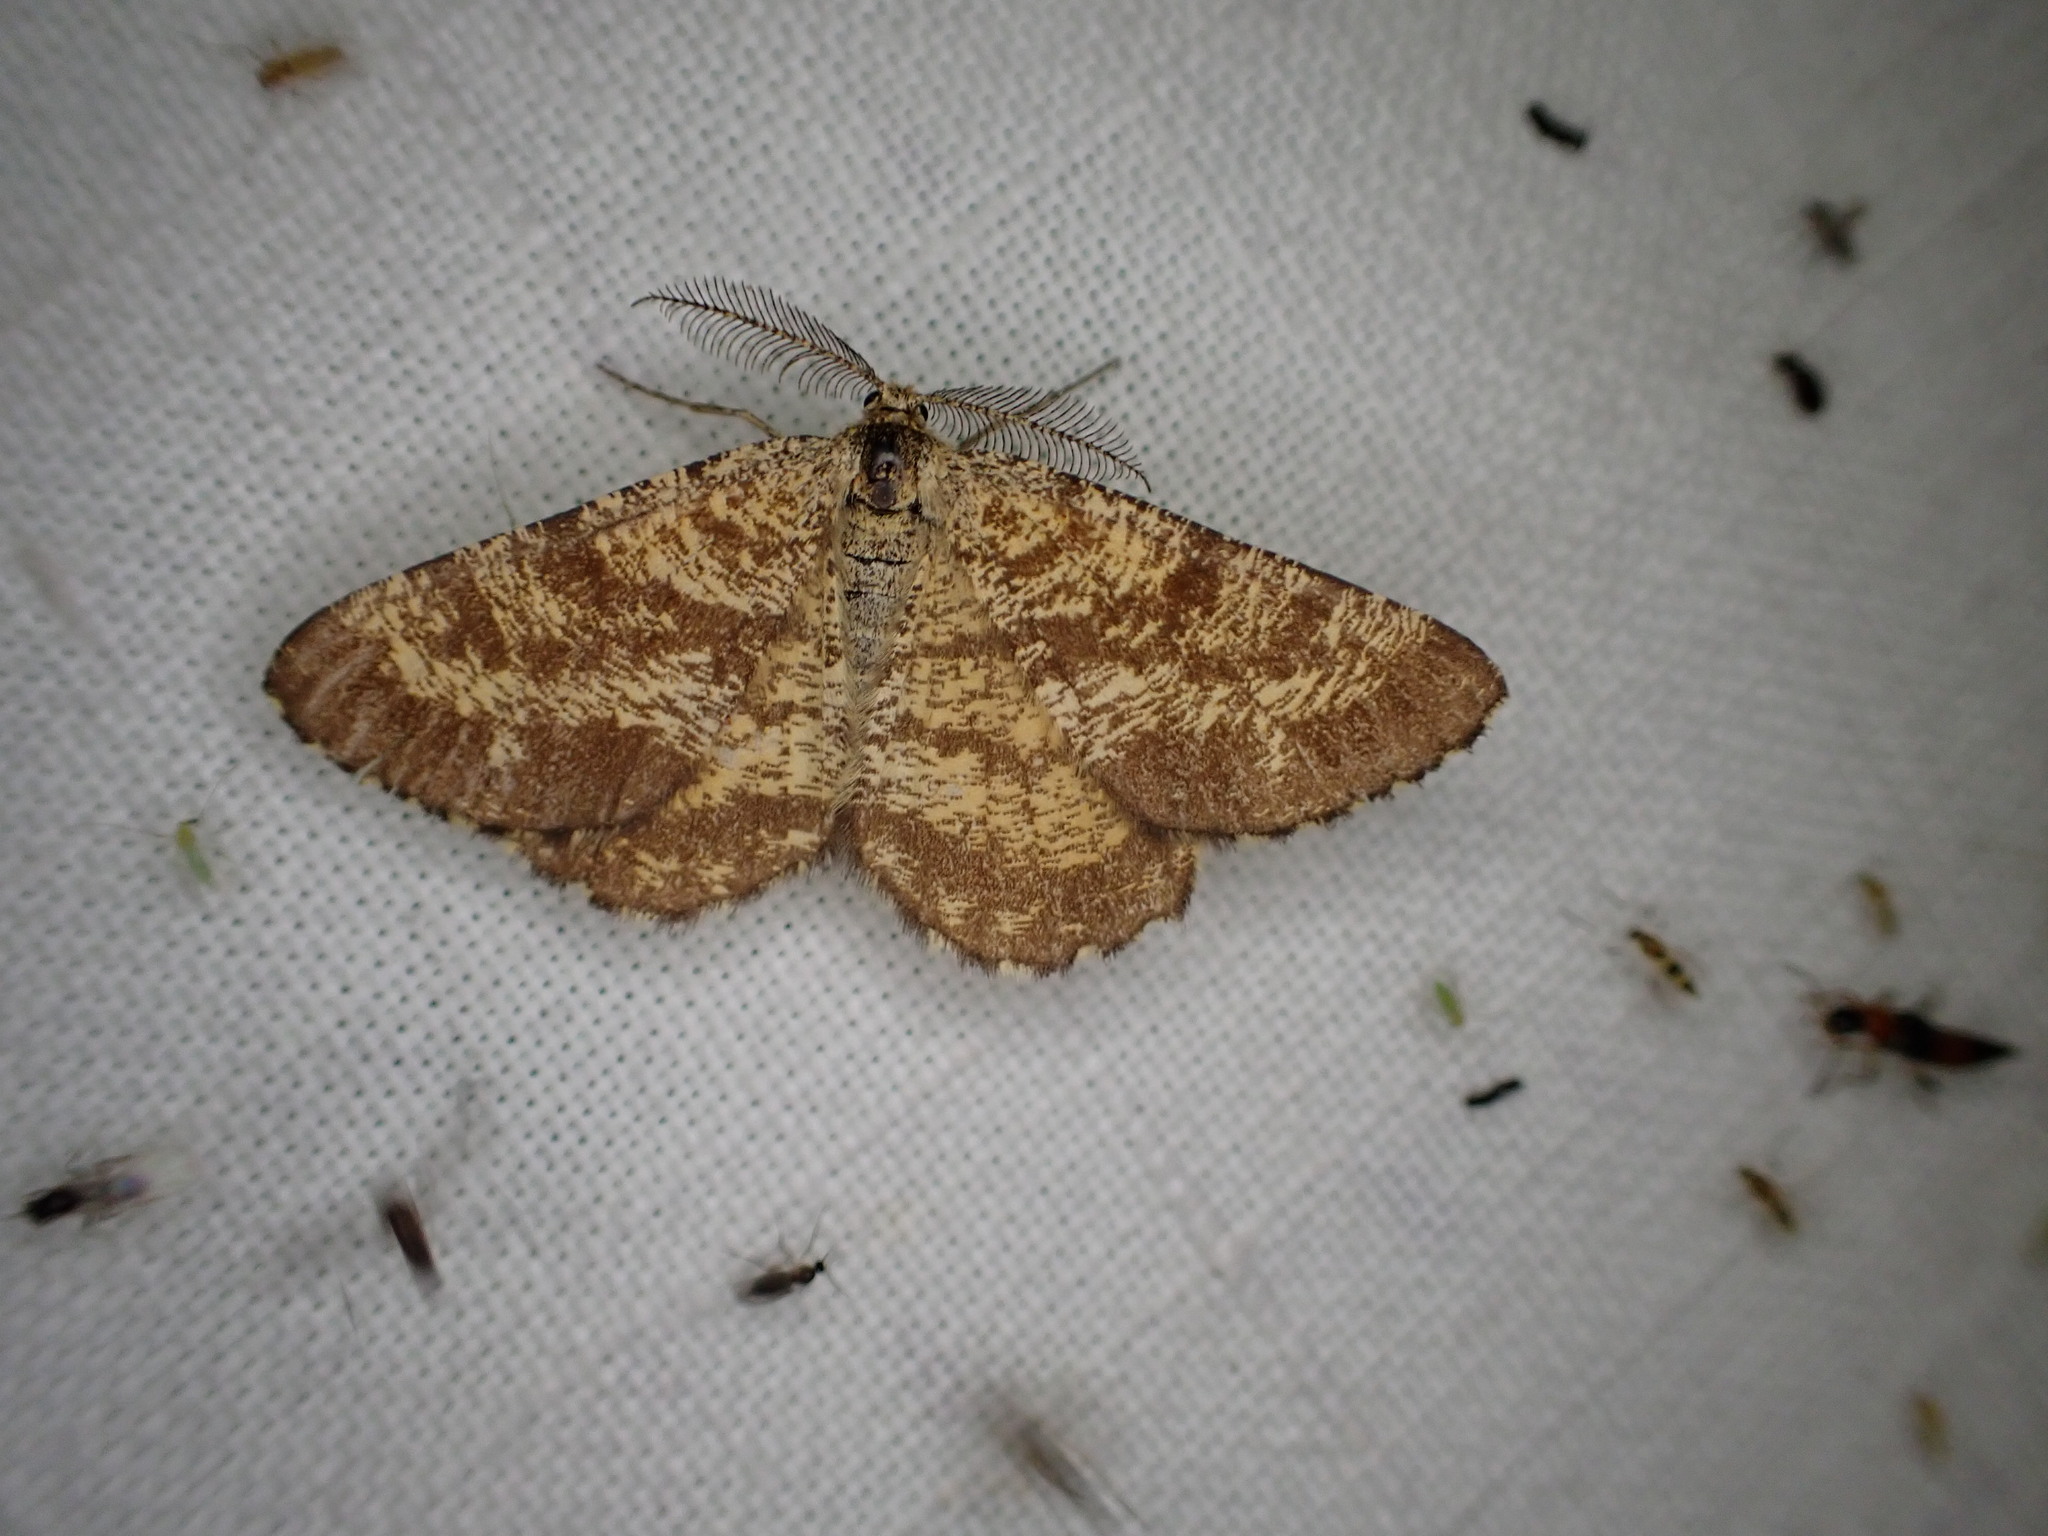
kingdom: Animalia
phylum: Arthropoda
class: Insecta
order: Lepidoptera
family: Geometridae
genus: Ematurga
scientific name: Ematurga atomaria
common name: Common heath
